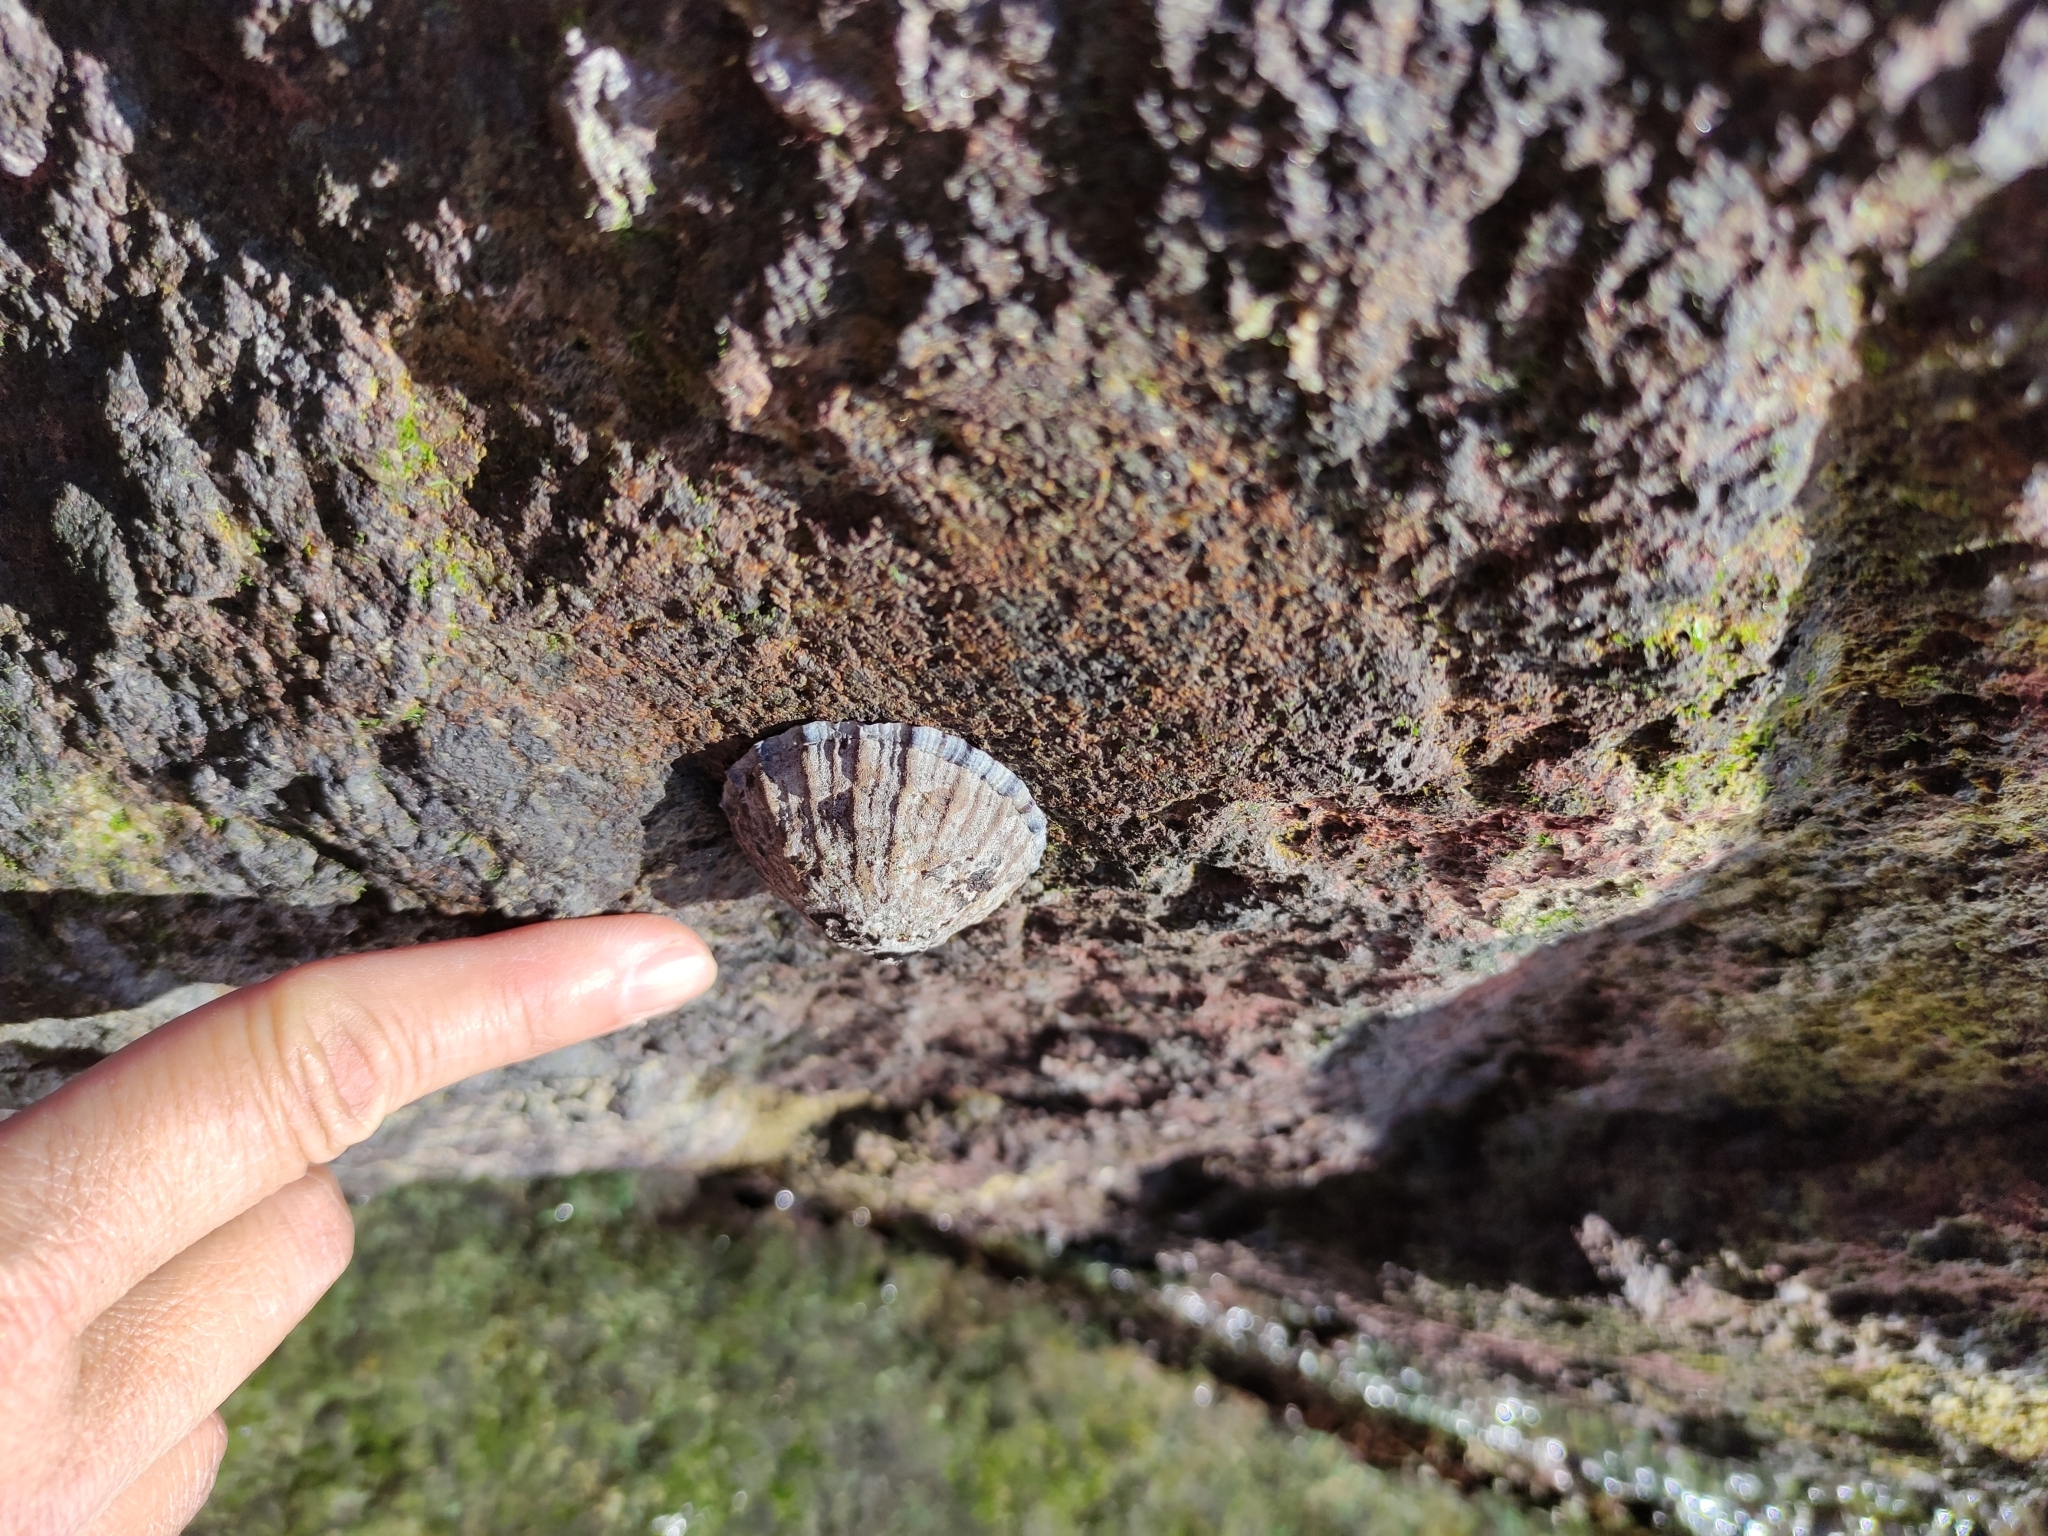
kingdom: Animalia
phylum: Mollusca
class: Gastropoda
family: Nacellidae
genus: Cellana
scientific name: Cellana radians
